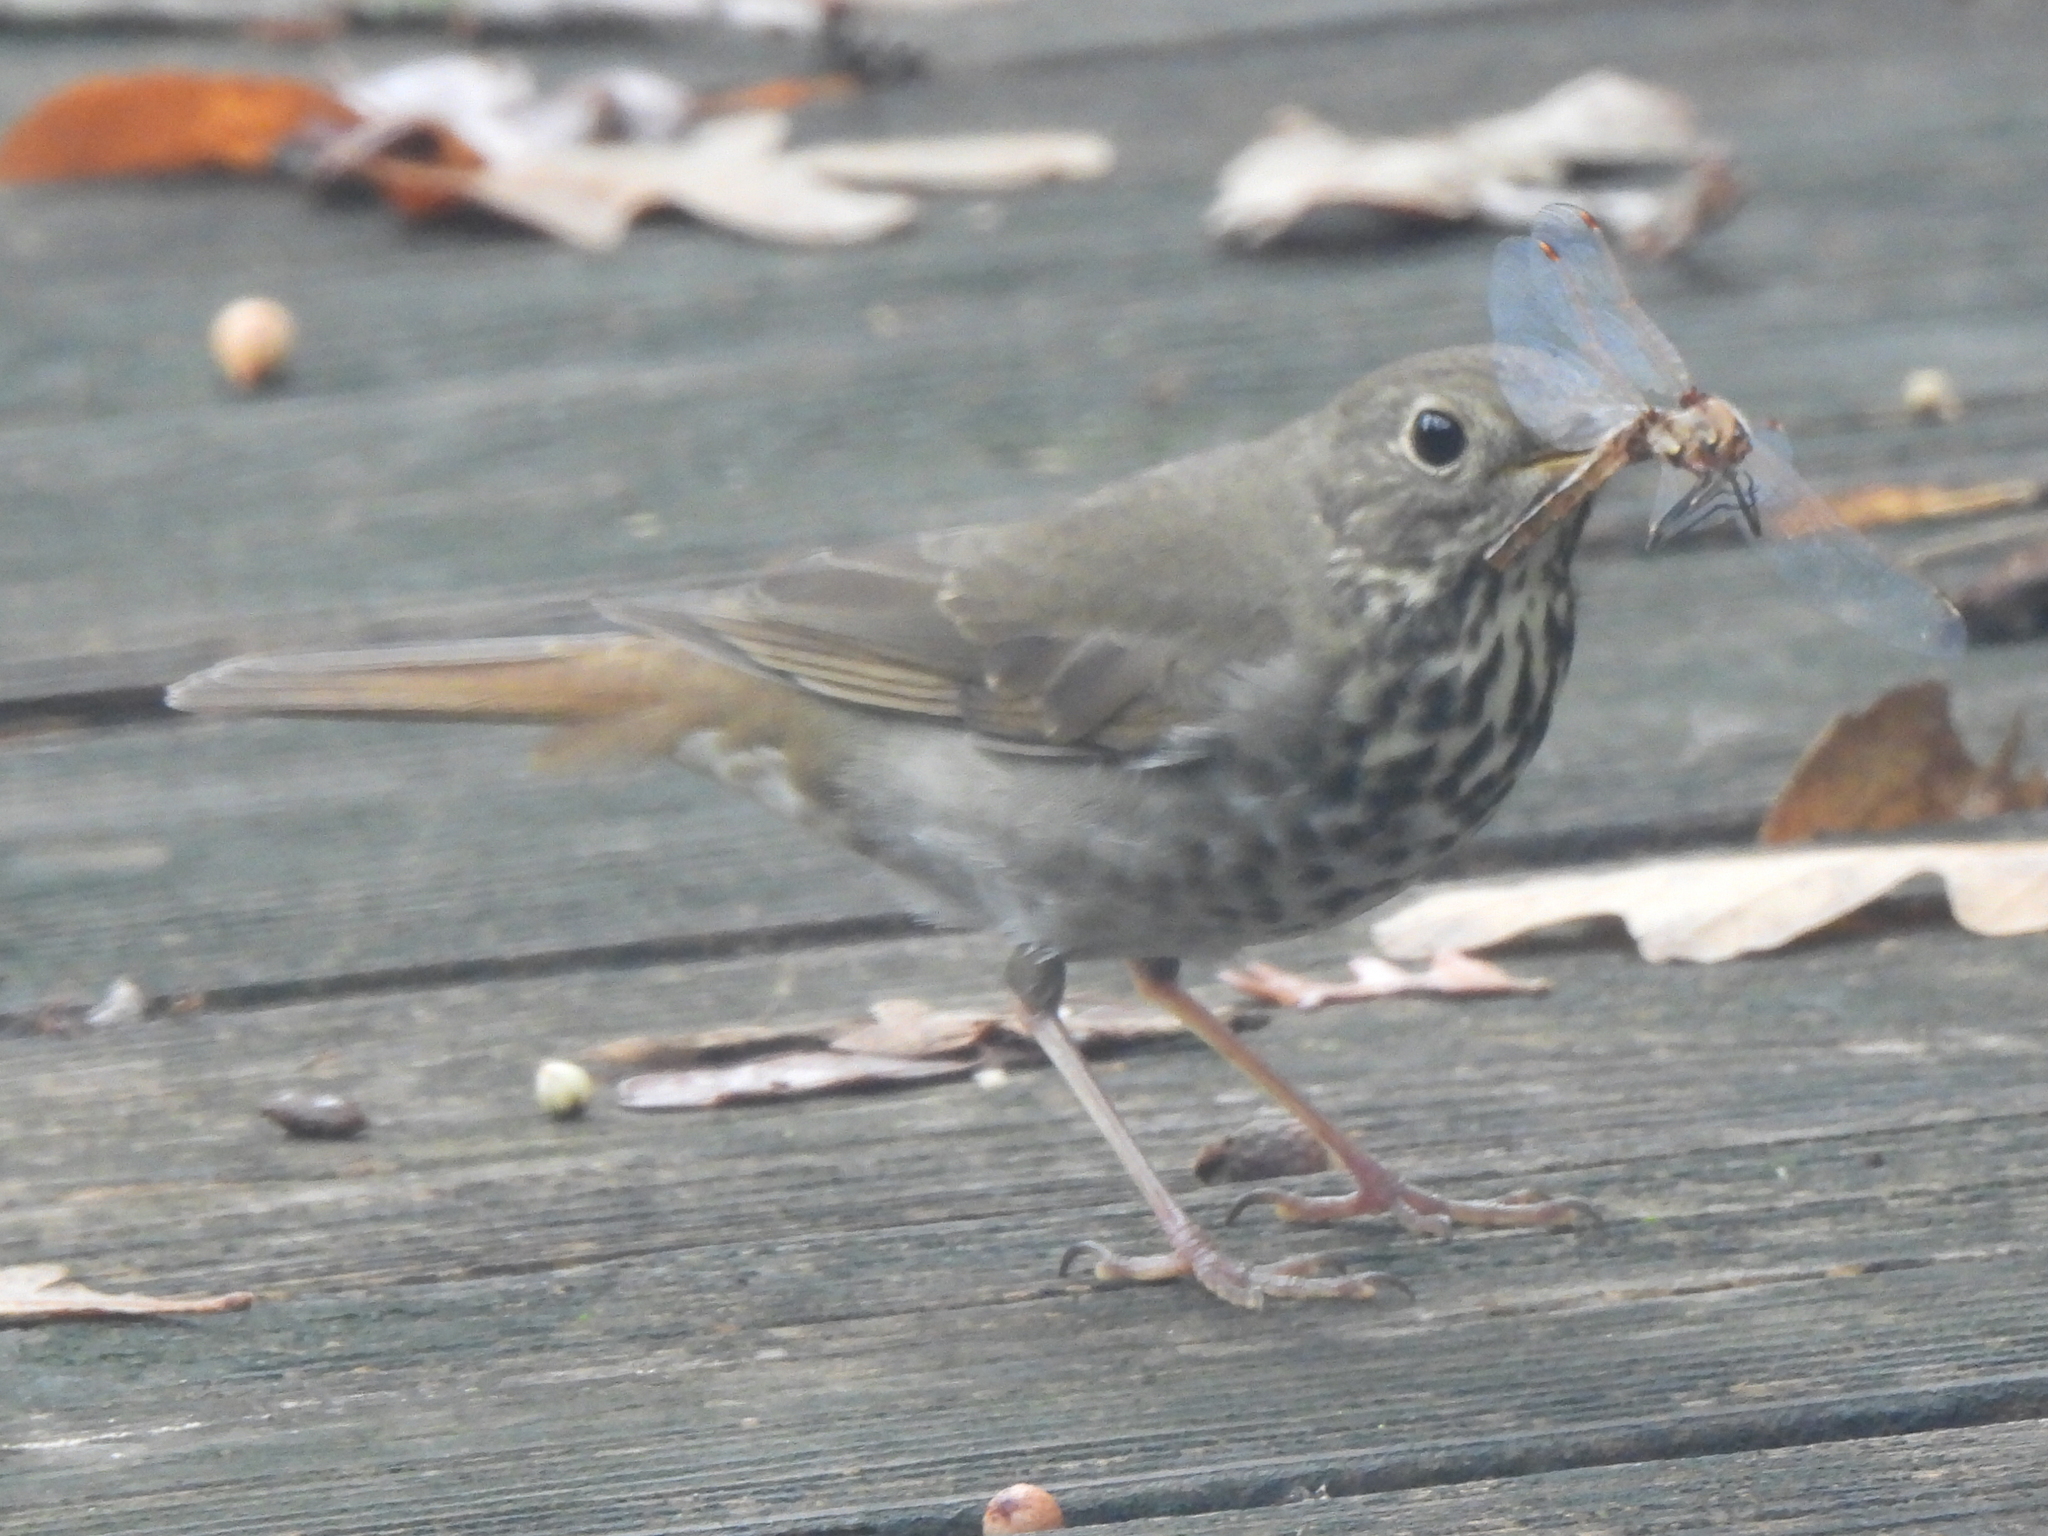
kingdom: Animalia
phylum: Chordata
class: Aves
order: Passeriformes
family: Turdidae
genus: Catharus
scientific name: Catharus guttatus
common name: Hermit thrush
